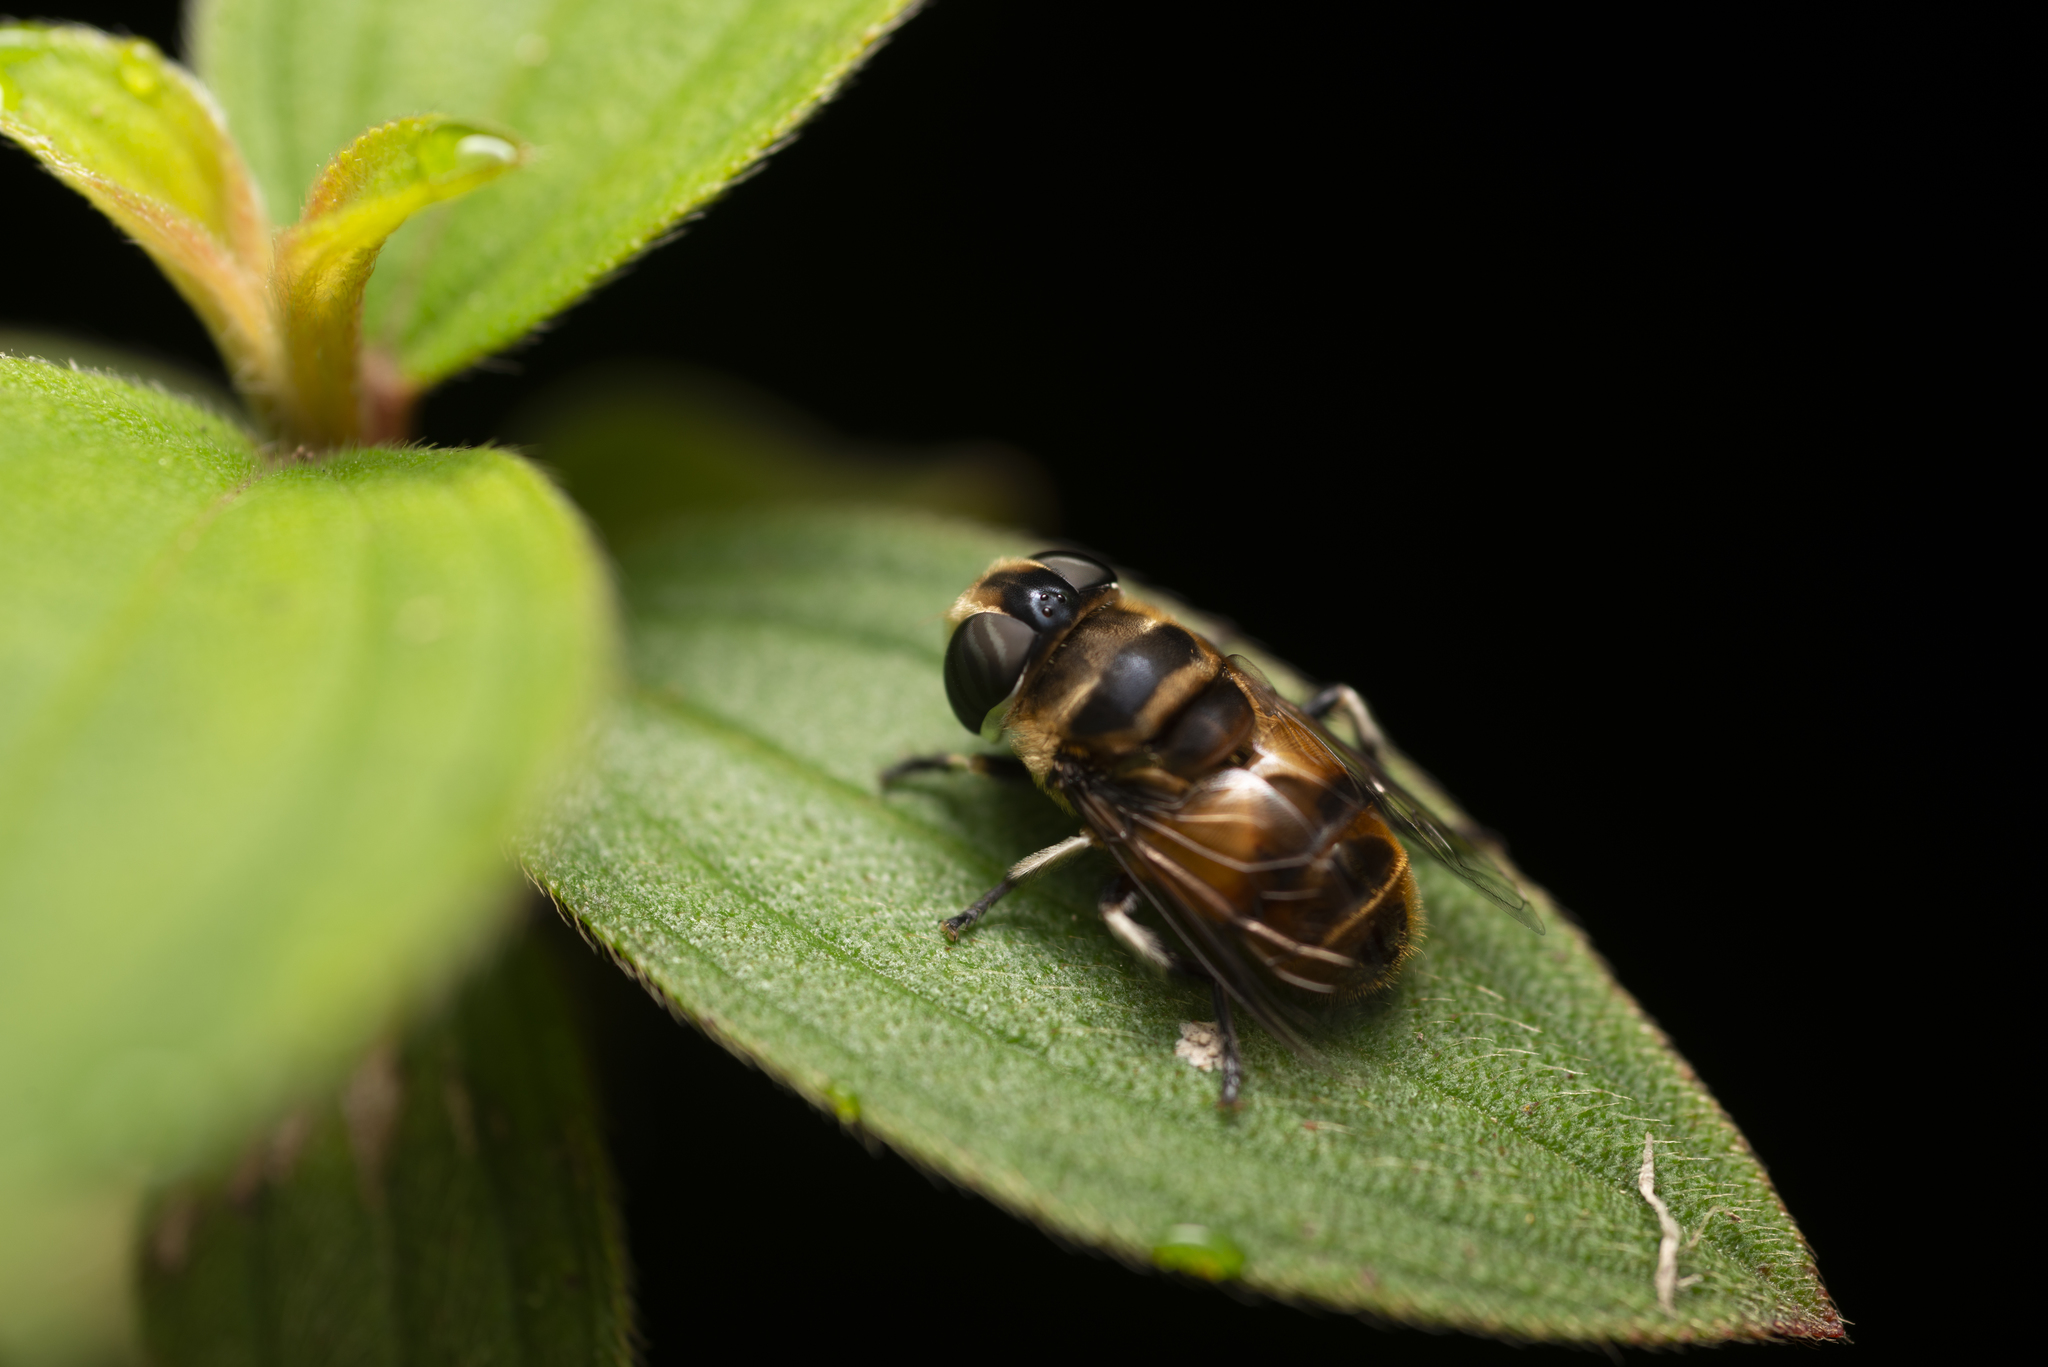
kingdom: Animalia
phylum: Arthropoda
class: Insecta
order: Diptera
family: Syrphidae
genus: Phytomia
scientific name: Phytomia errans
